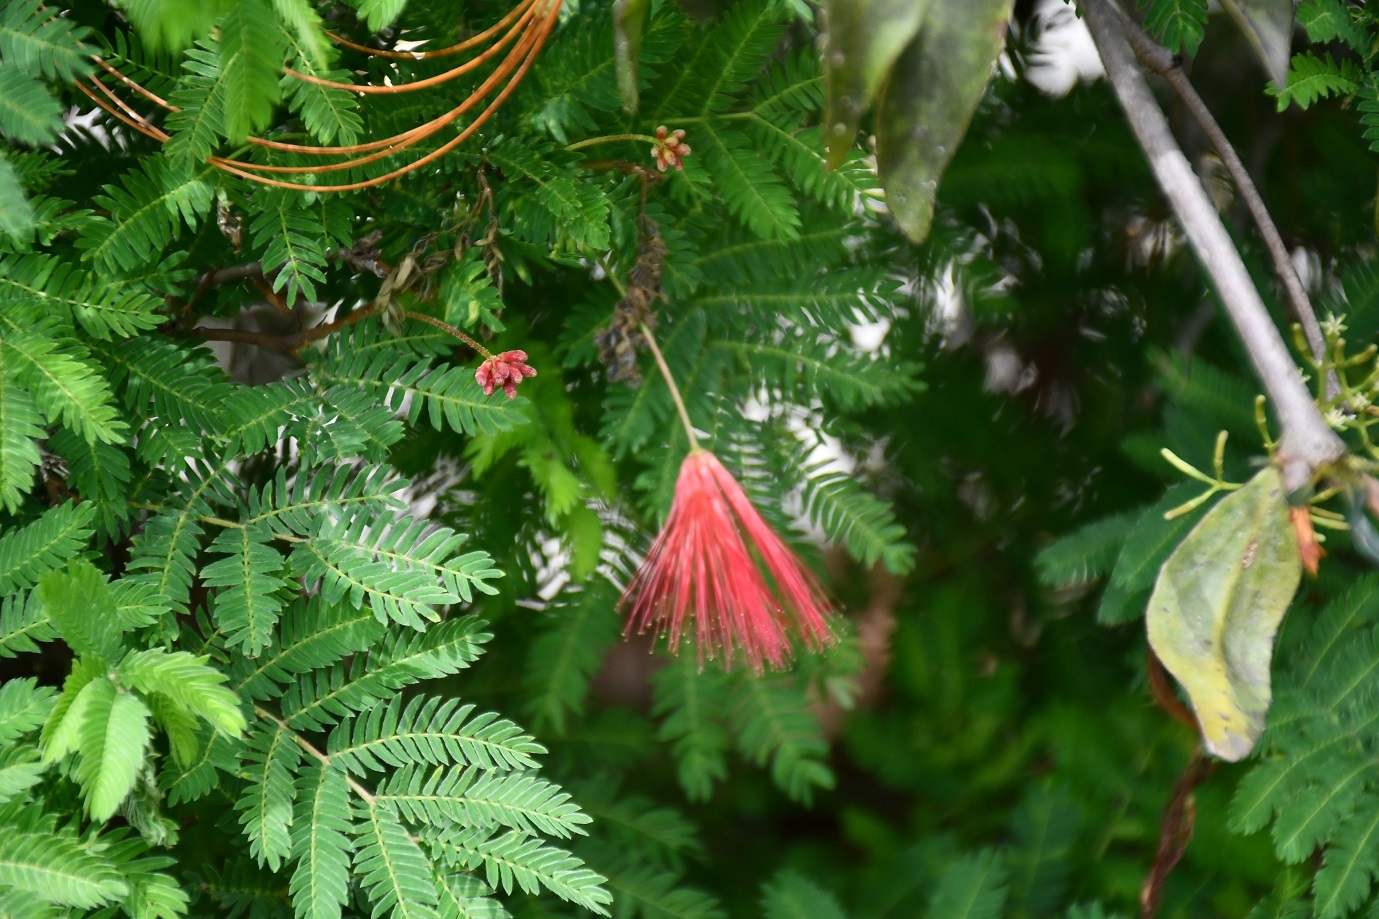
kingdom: Plantae
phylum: Tracheophyta
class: Magnoliopsida
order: Fabales
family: Fabaceae
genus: Calliandra
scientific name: Calliandra hirsuta
